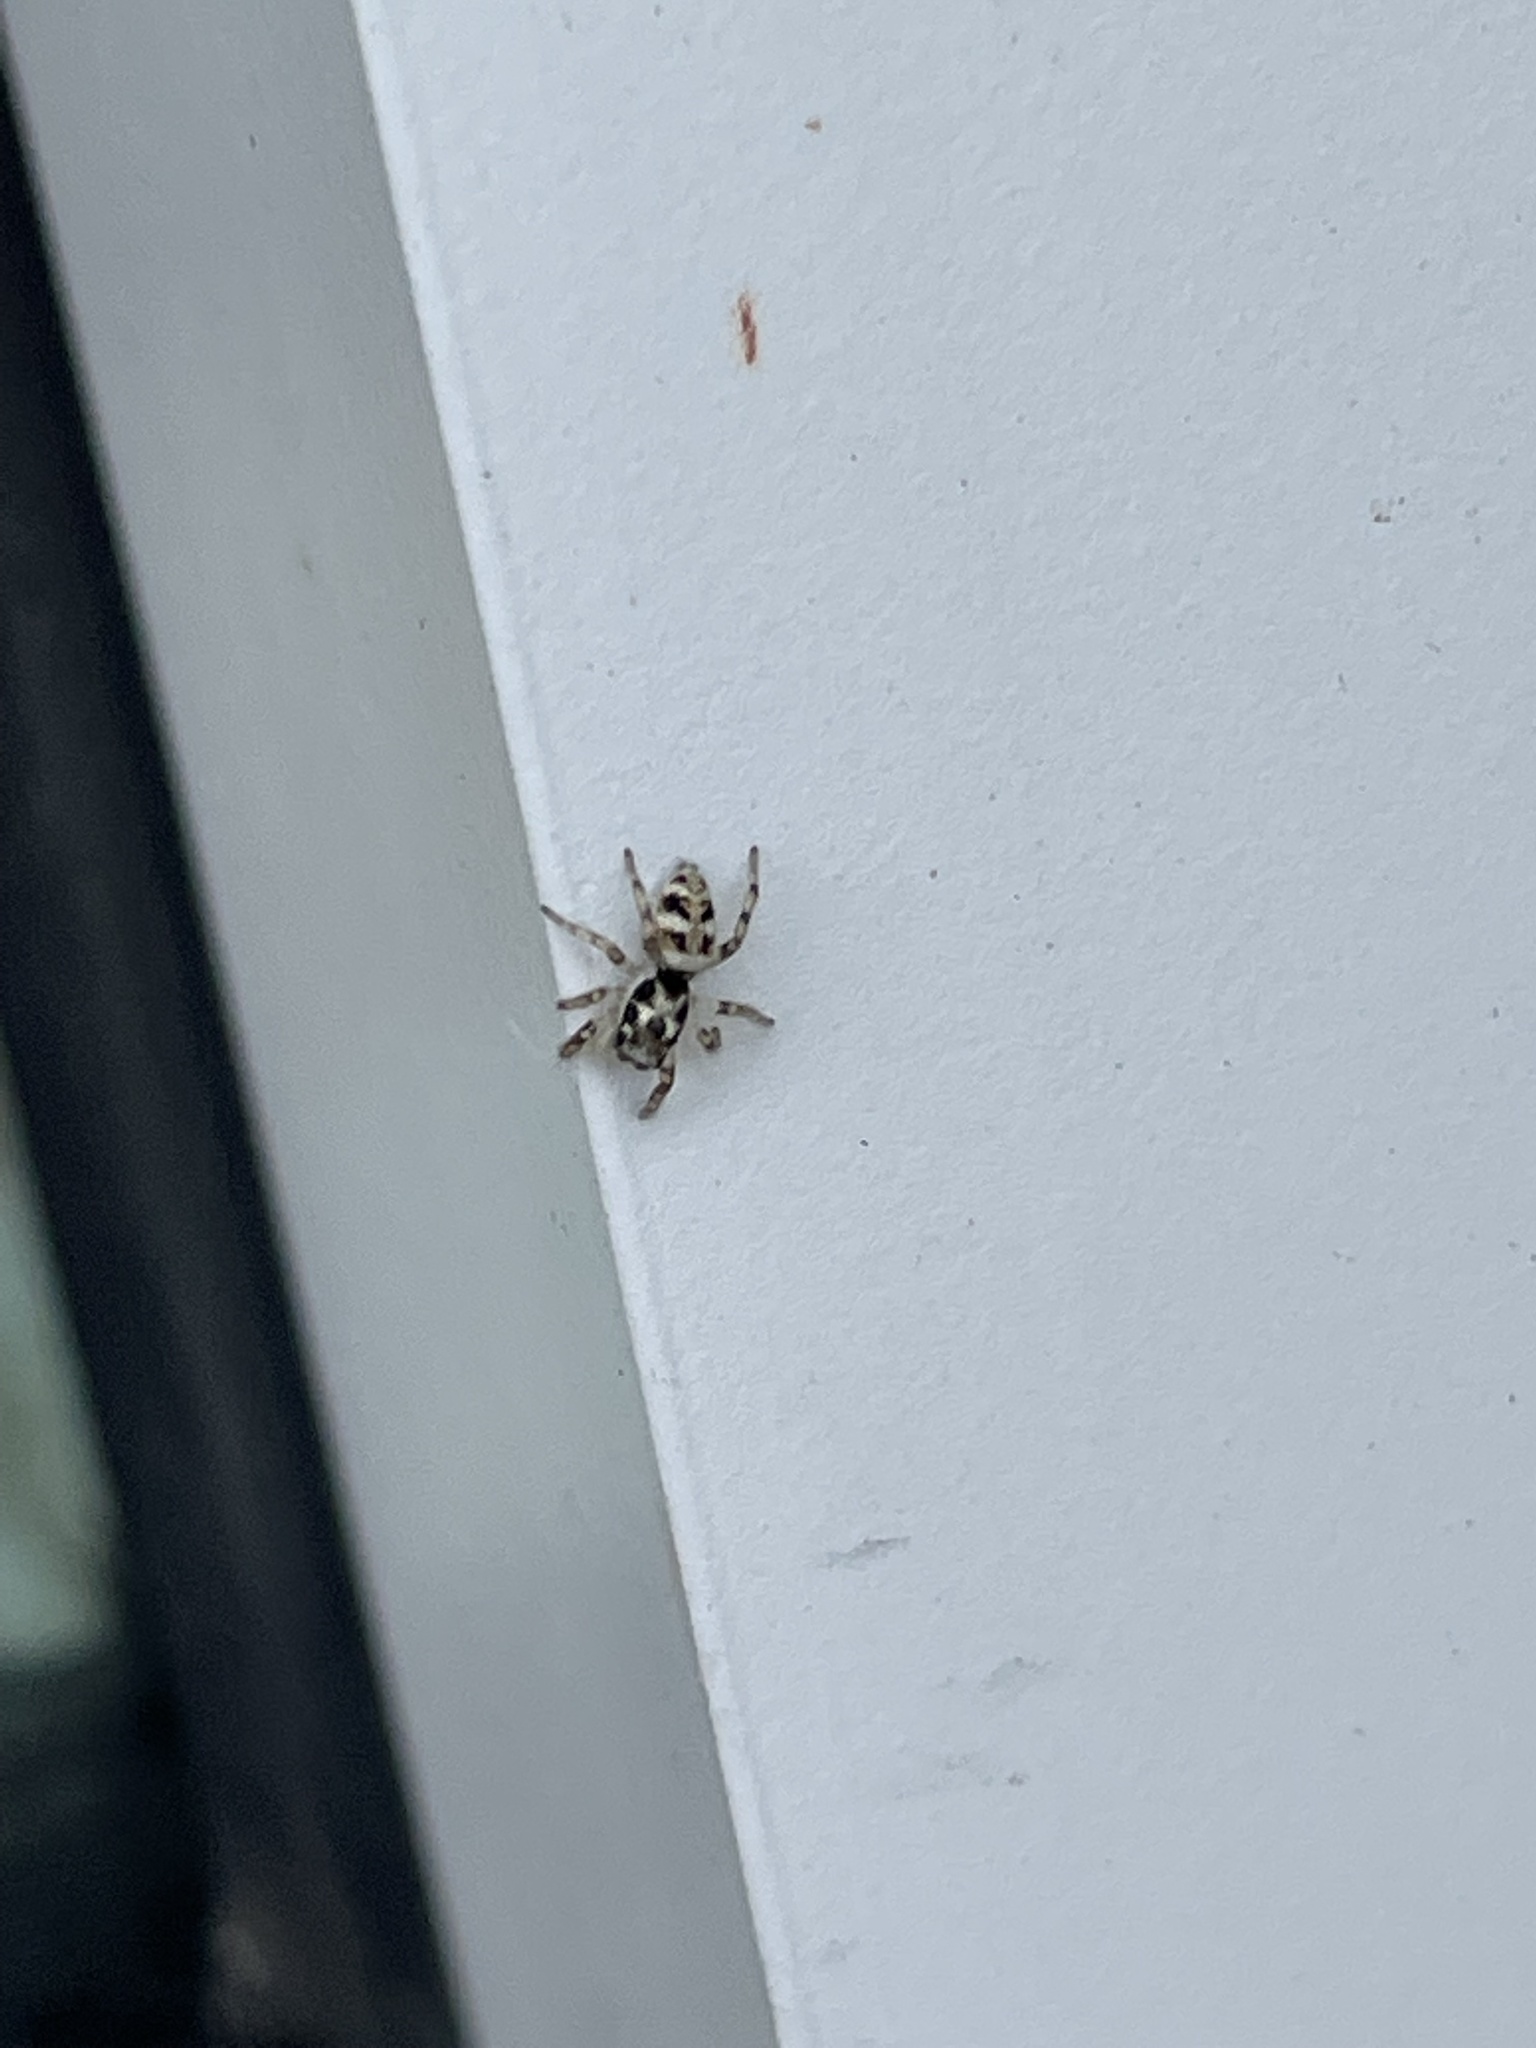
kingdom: Animalia
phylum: Arthropoda
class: Arachnida
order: Araneae
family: Salticidae
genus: Salticus
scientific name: Salticus scenicus
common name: Zebra jumper
